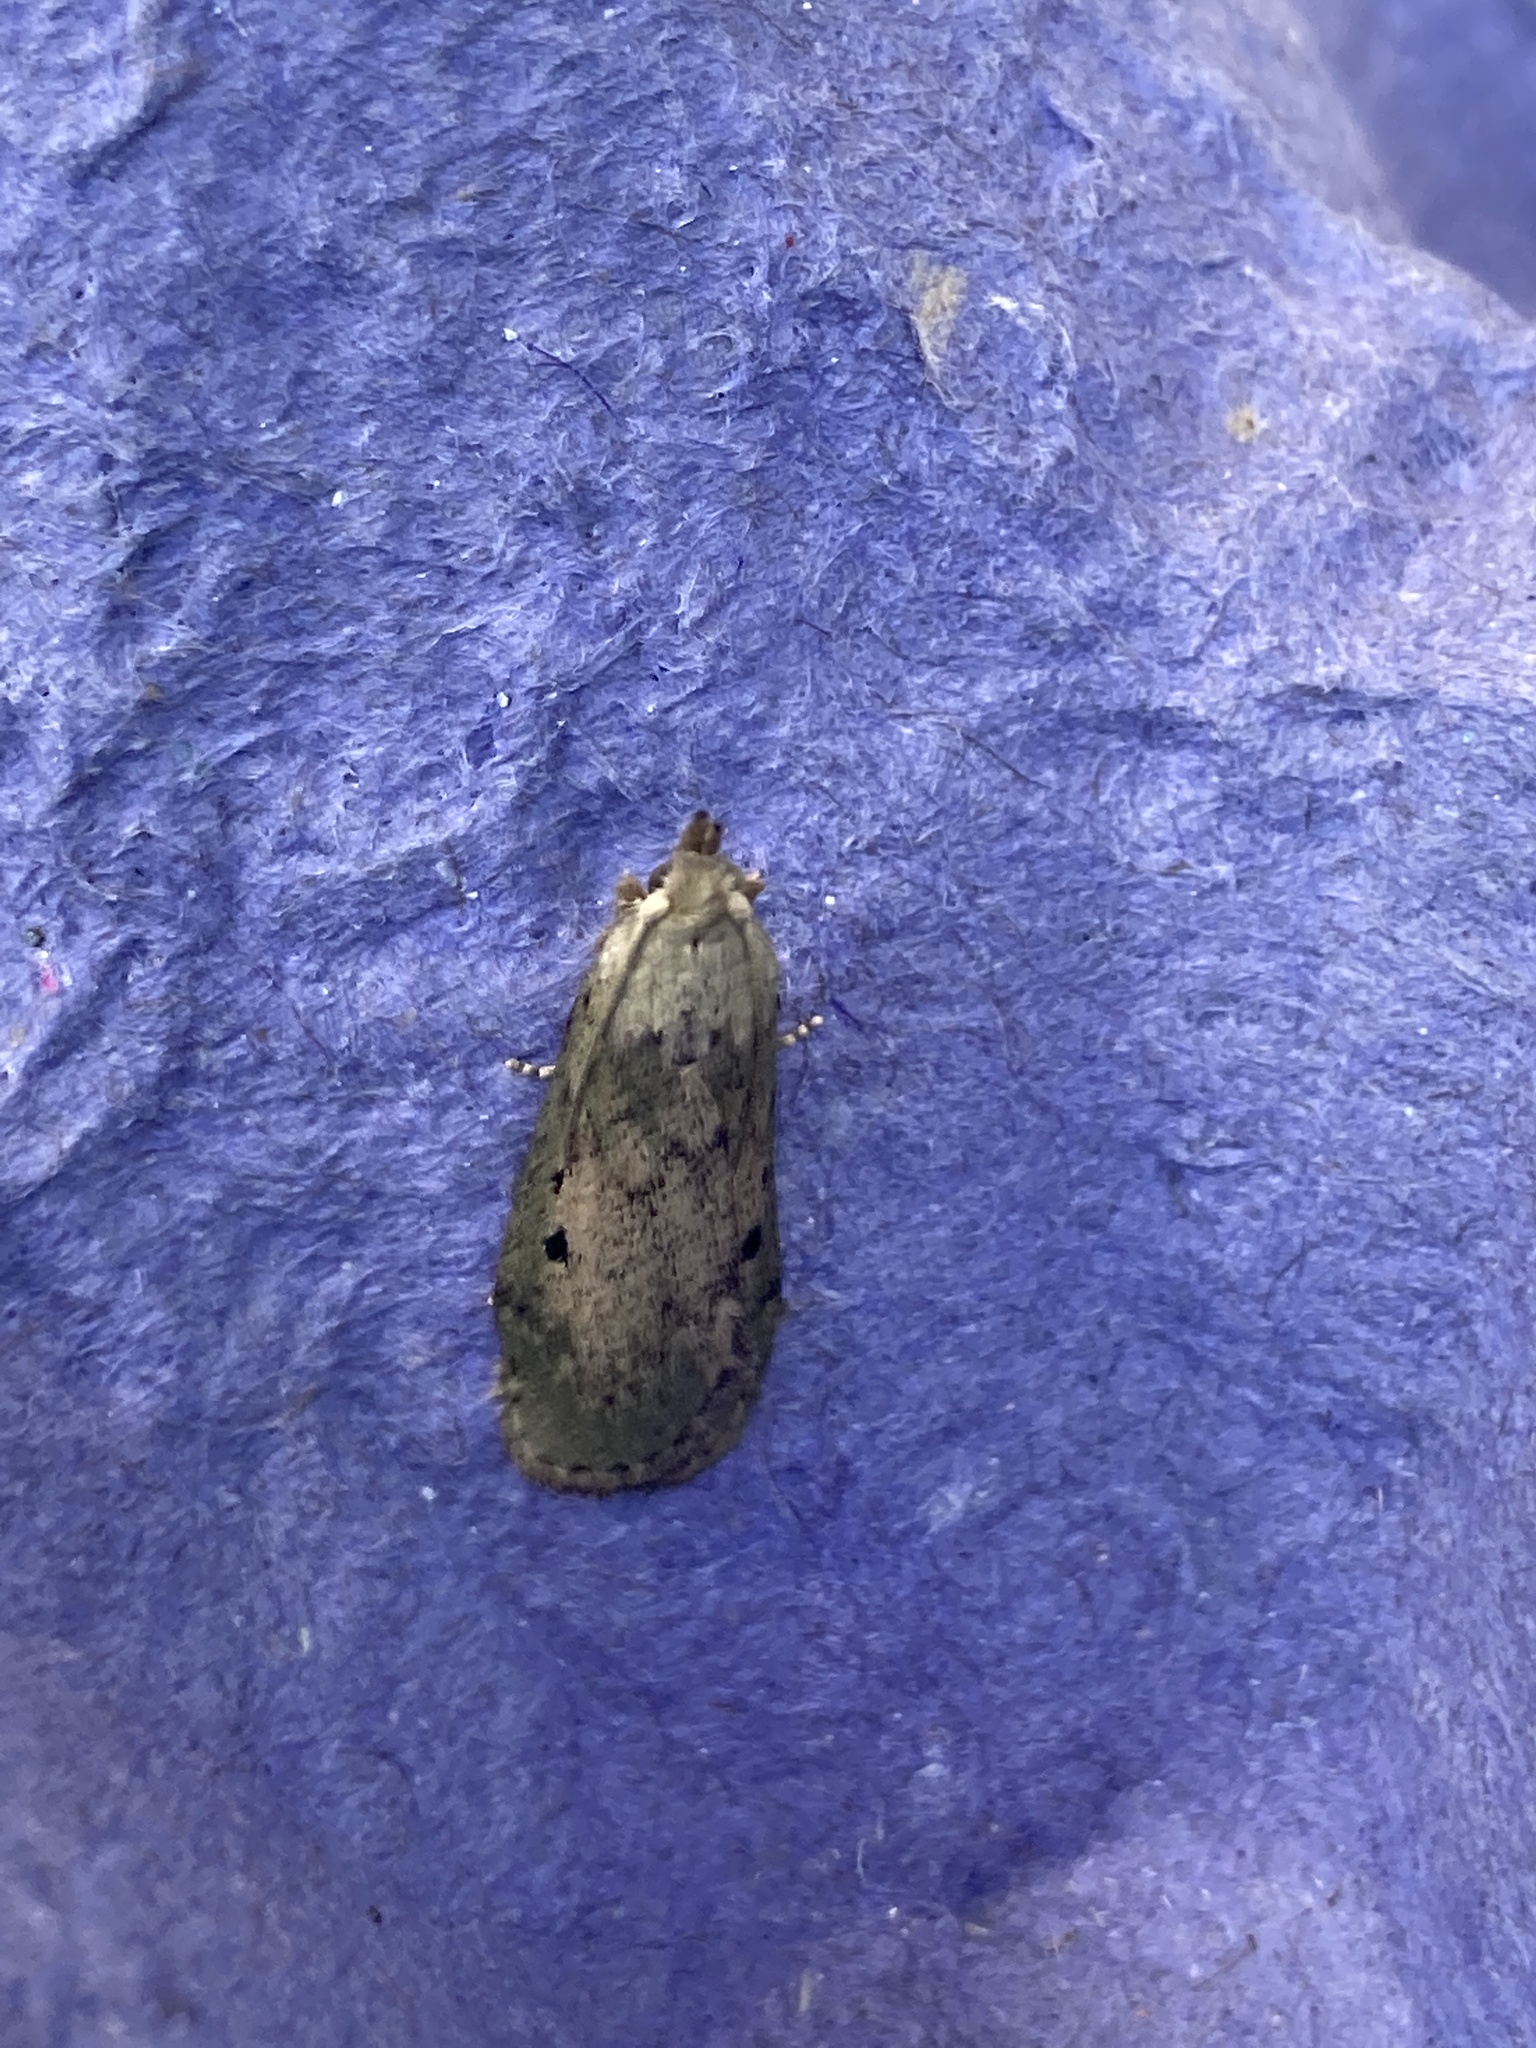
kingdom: Animalia
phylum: Arthropoda
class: Insecta
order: Lepidoptera
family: Pyralidae
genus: Aphomia
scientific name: Aphomia sociella
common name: Bee moth
